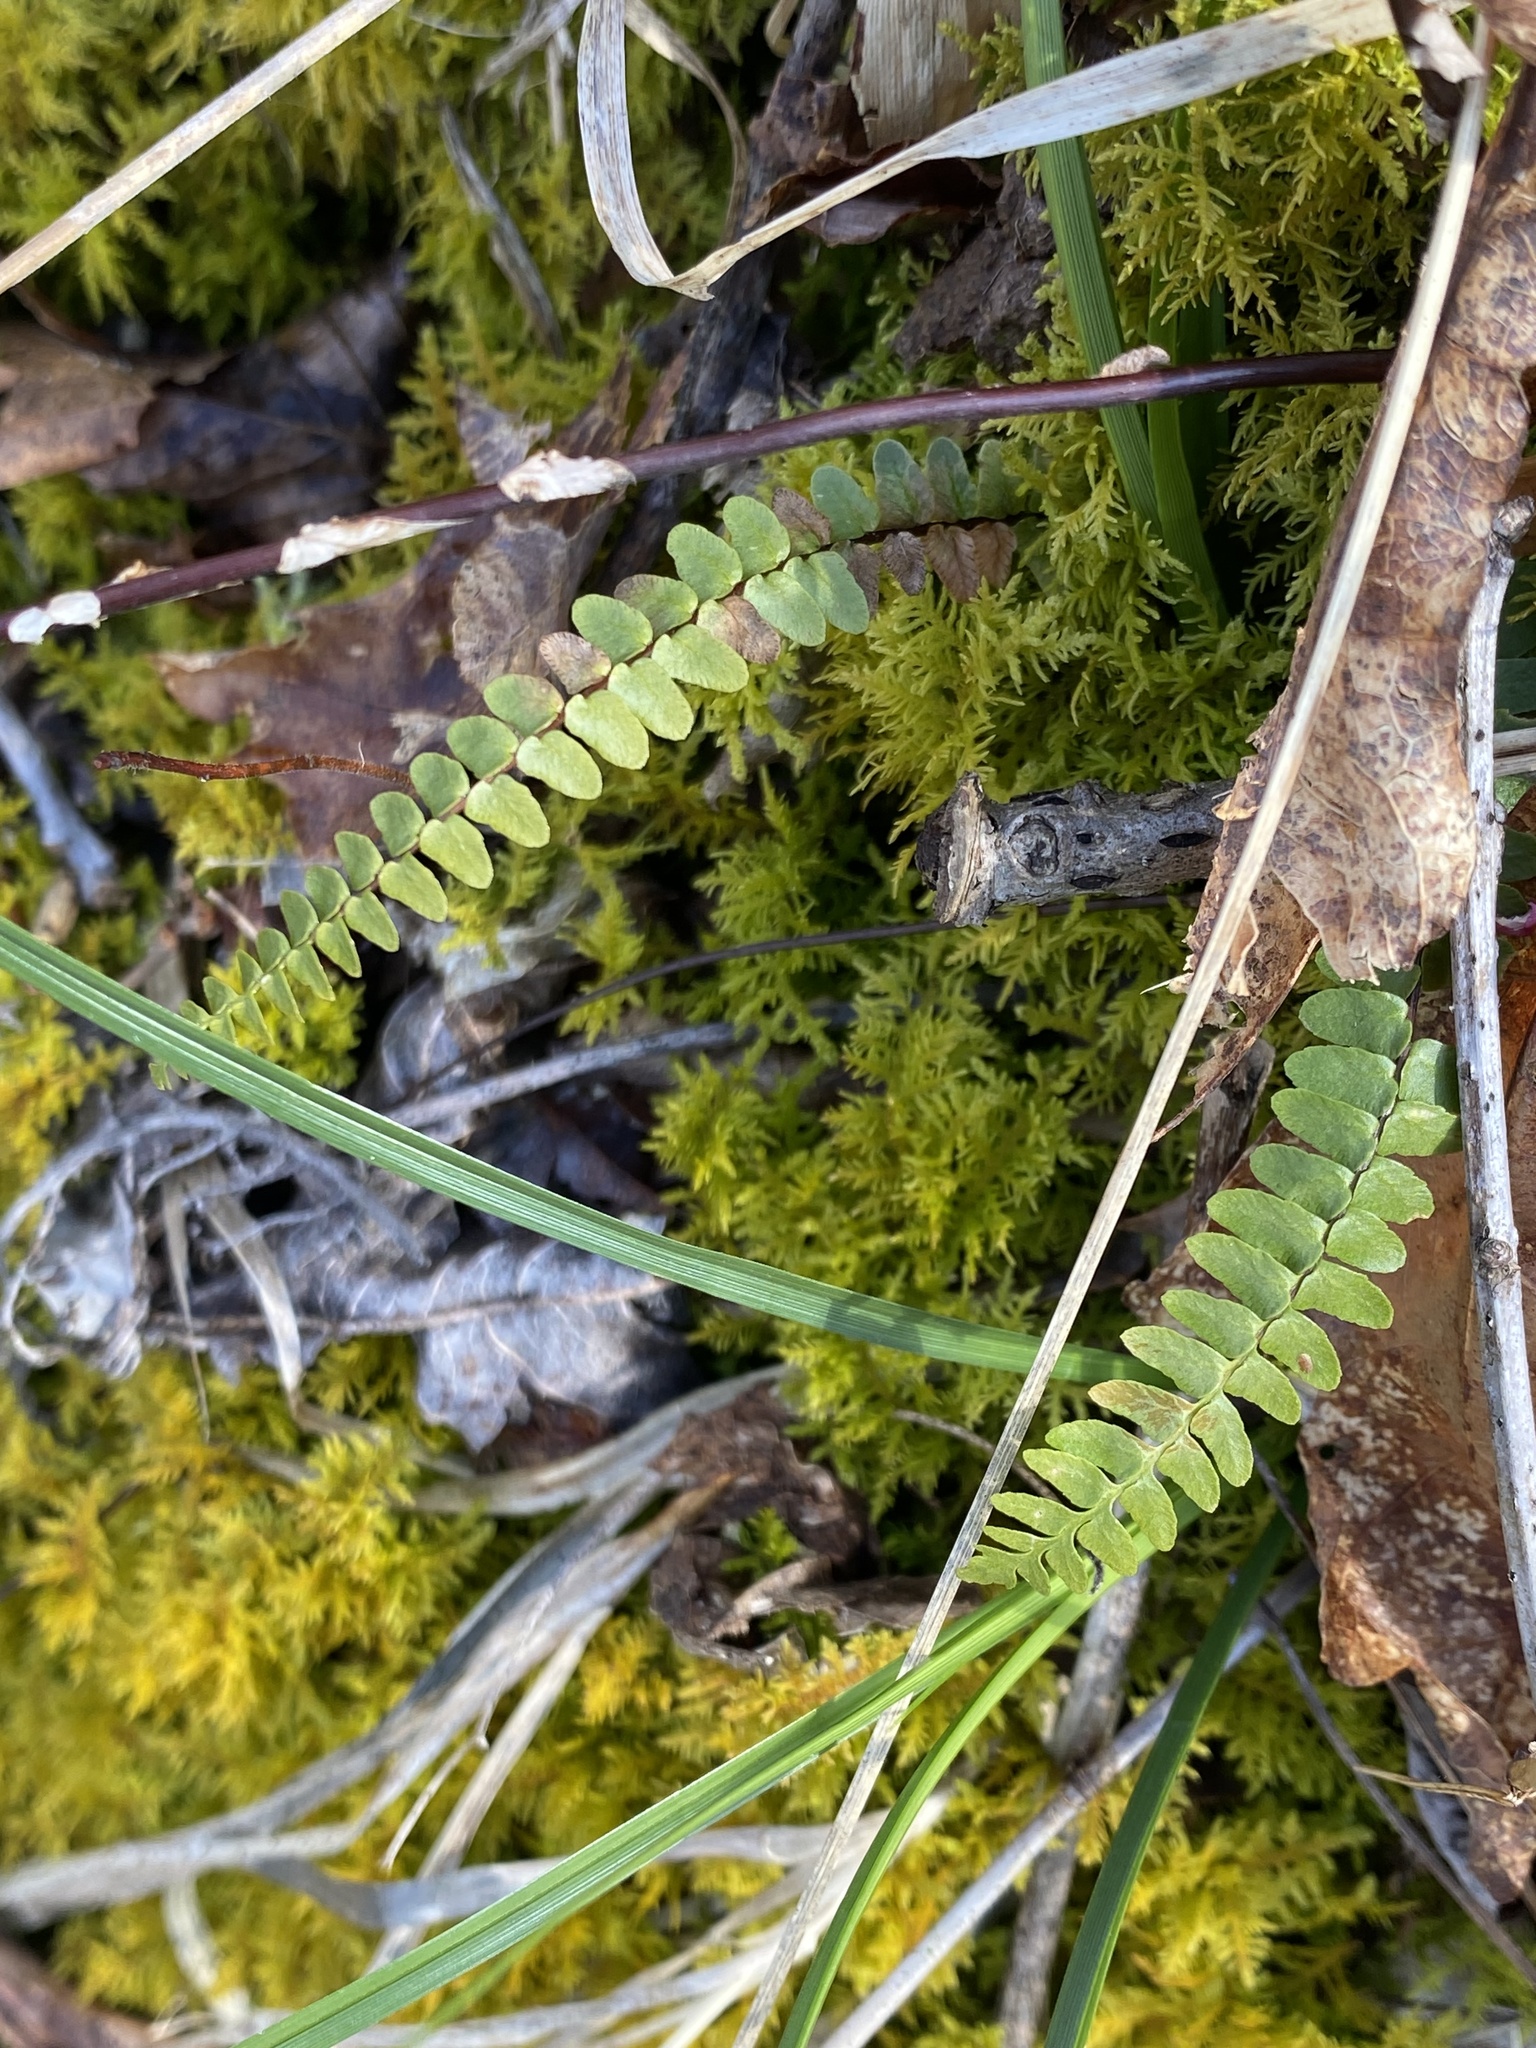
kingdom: Plantae
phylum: Tracheophyta
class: Polypodiopsida
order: Polypodiales
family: Aspleniaceae
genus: Asplenium
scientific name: Asplenium platyneuron
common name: Ebony spleenwort
